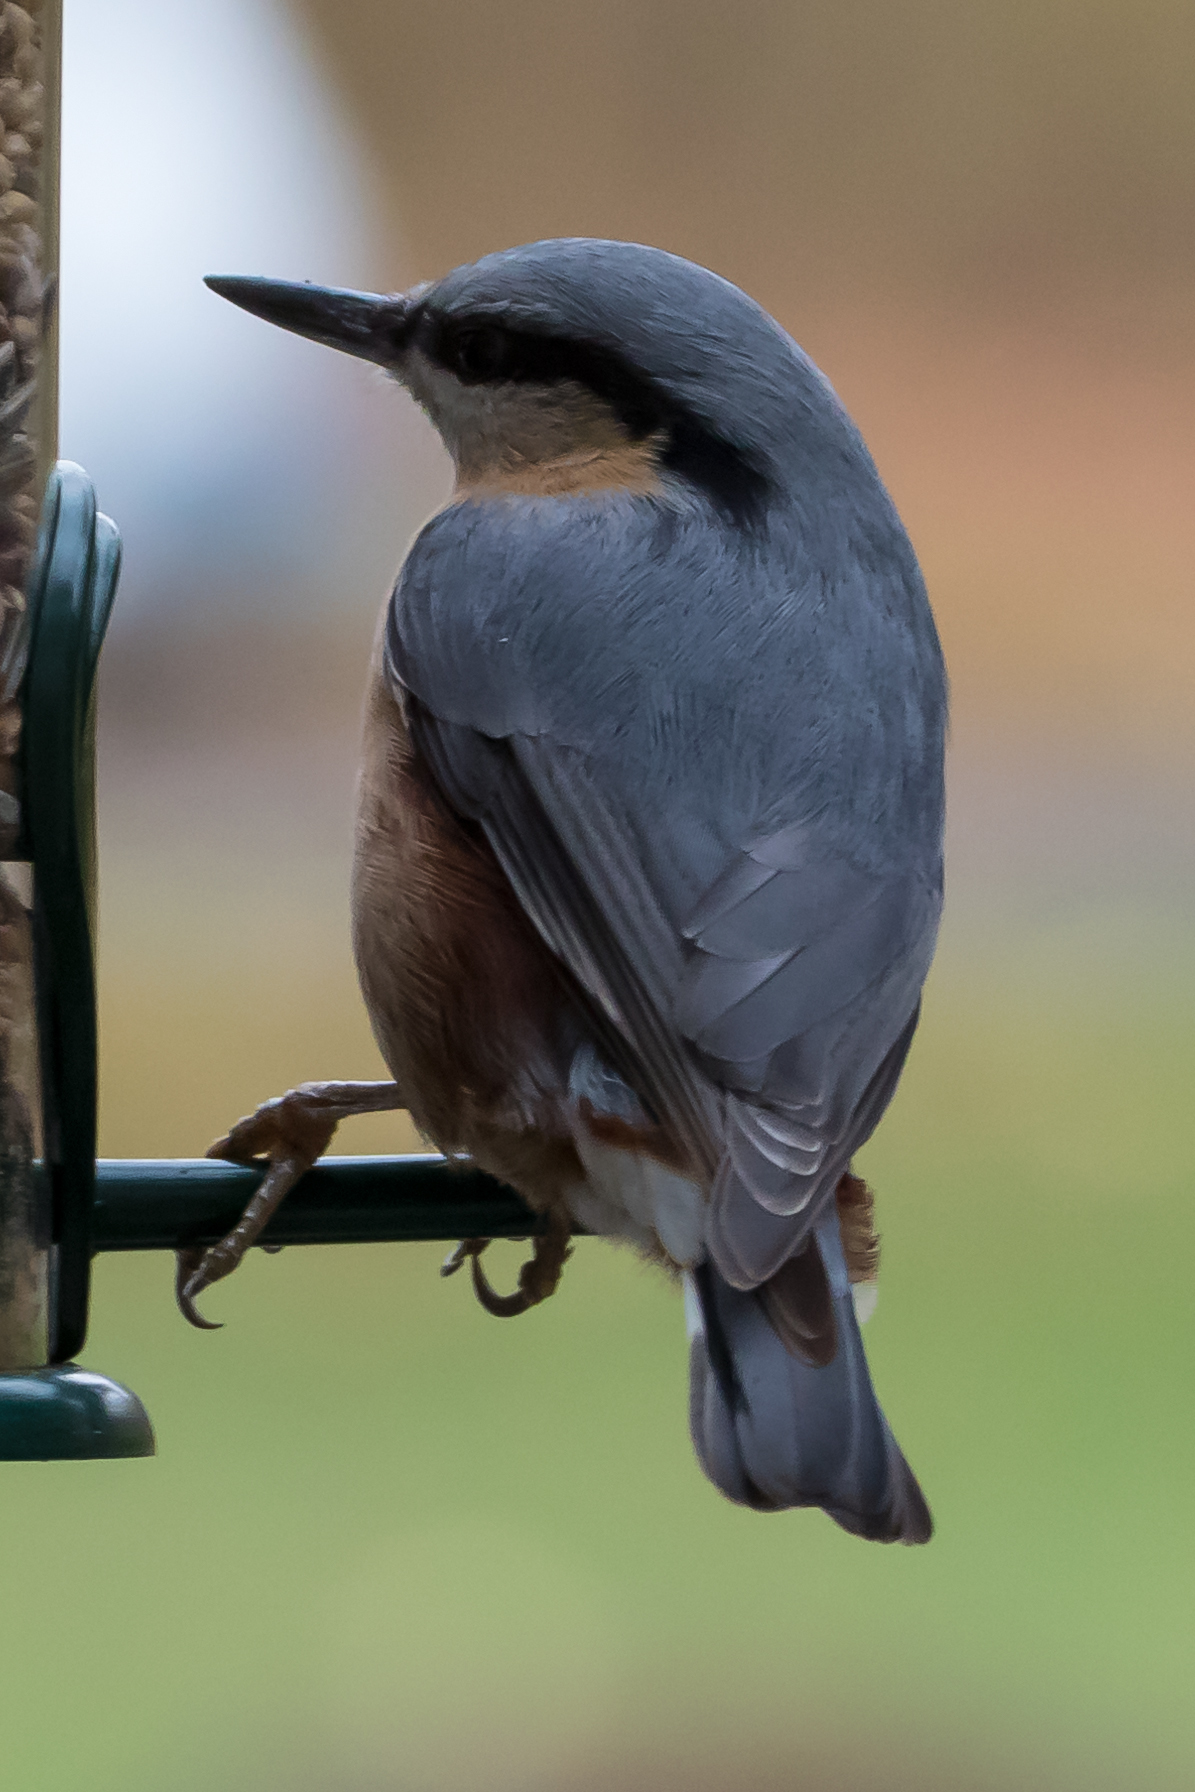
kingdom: Animalia
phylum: Chordata
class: Aves
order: Passeriformes
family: Sittidae
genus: Sitta
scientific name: Sitta europaea
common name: Eurasian nuthatch
